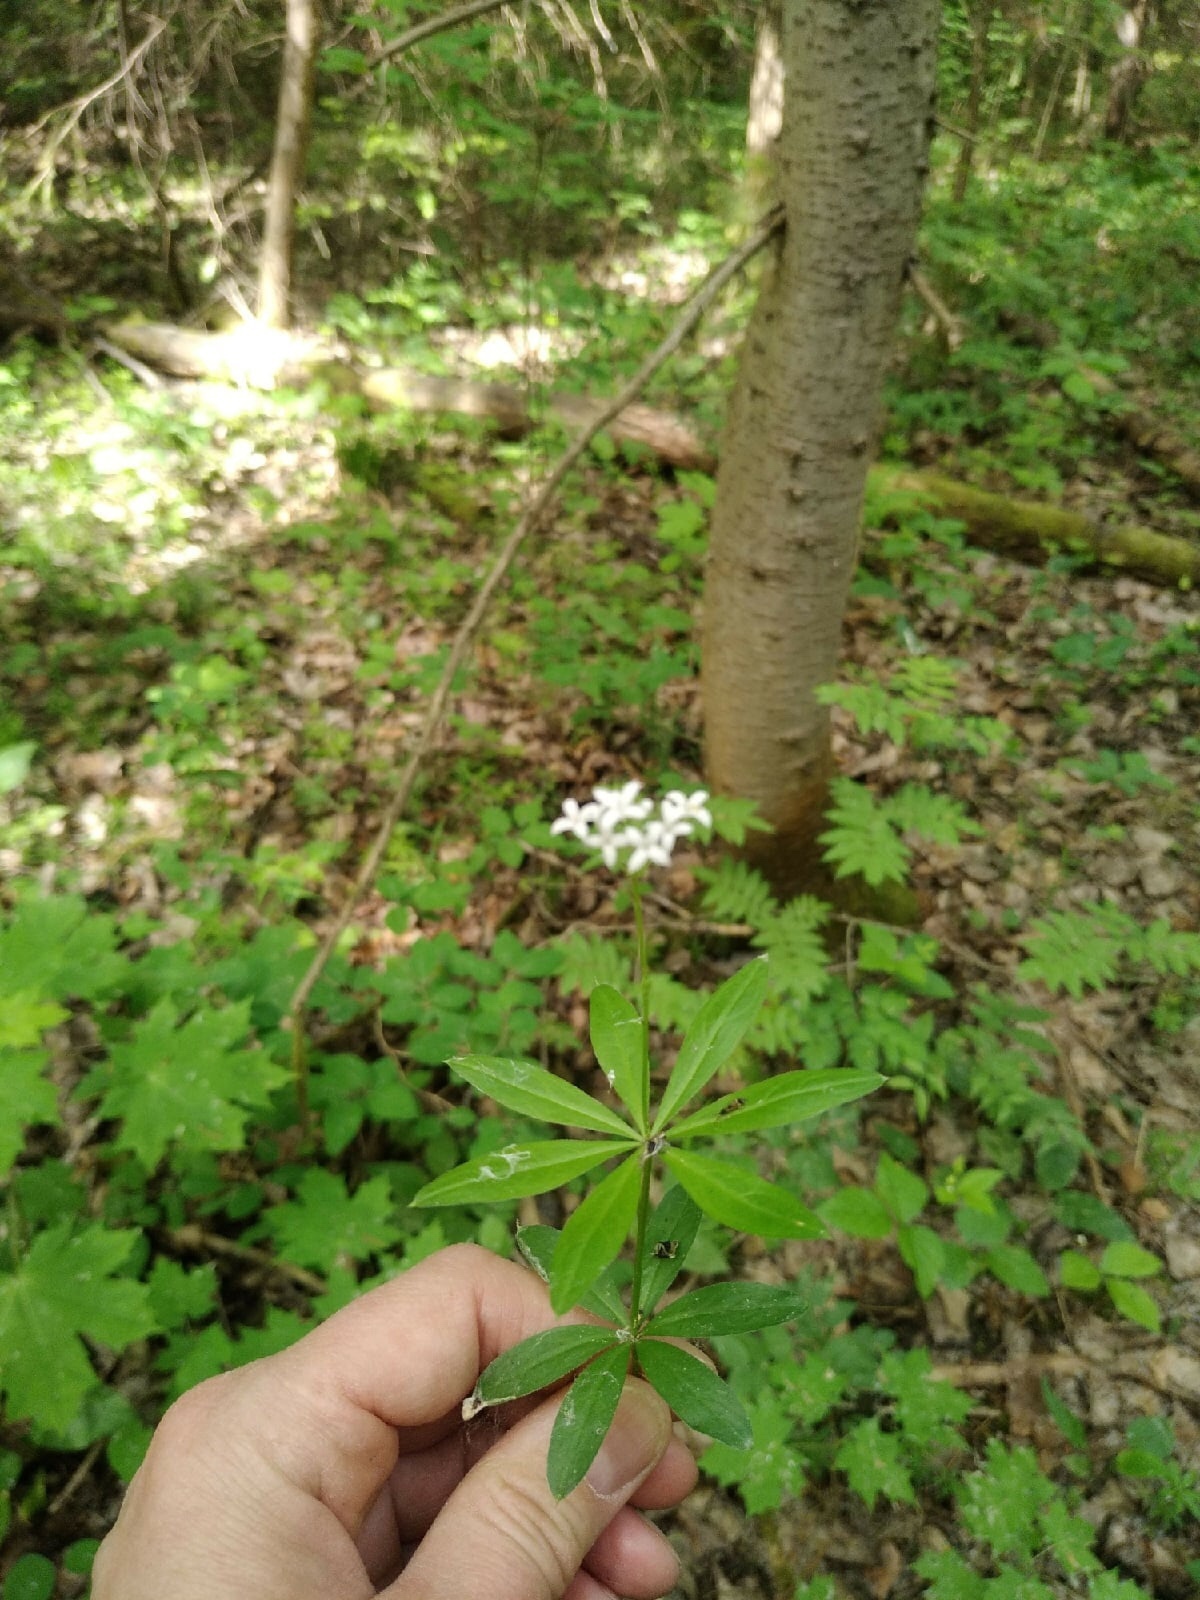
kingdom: Plantae
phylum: Tracheophyta
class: Magnoliopsida
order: Gentianales
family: Rubiaceae
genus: Galium
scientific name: Galium odoratum
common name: Sweet woodruff
